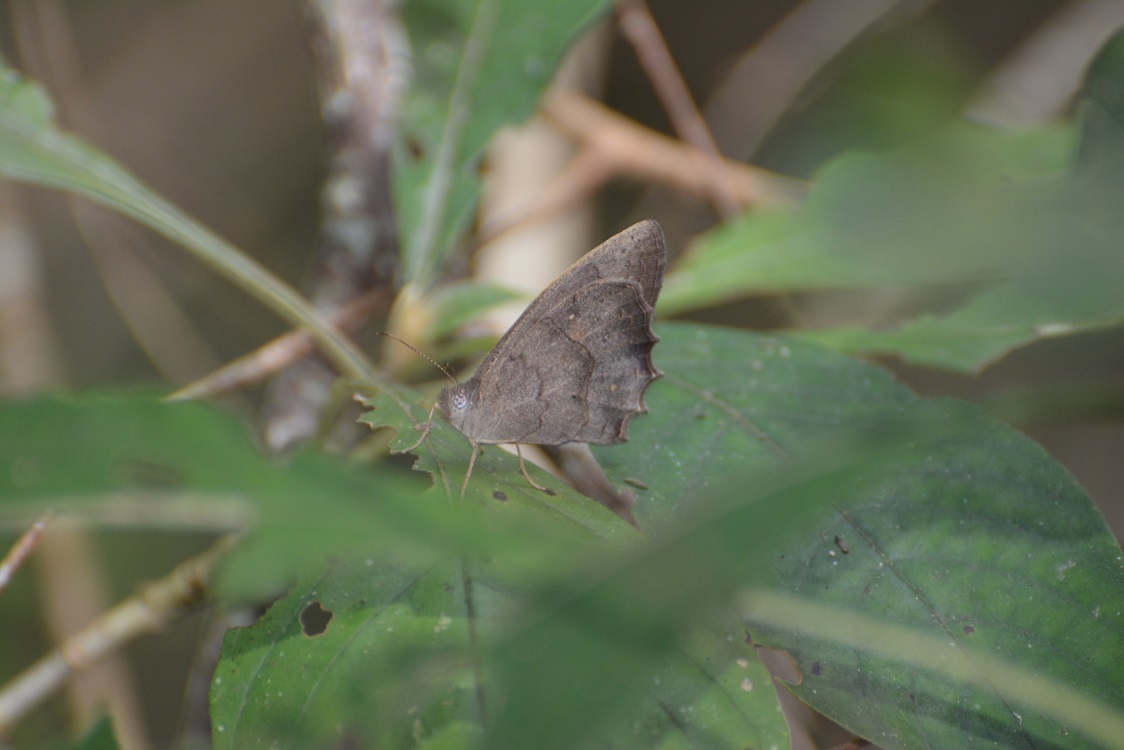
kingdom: Animalia
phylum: Arthropoda
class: Insecta
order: Lepidoptera
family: Nymphalidae
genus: Taygetis
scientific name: Taygetis weymeri
